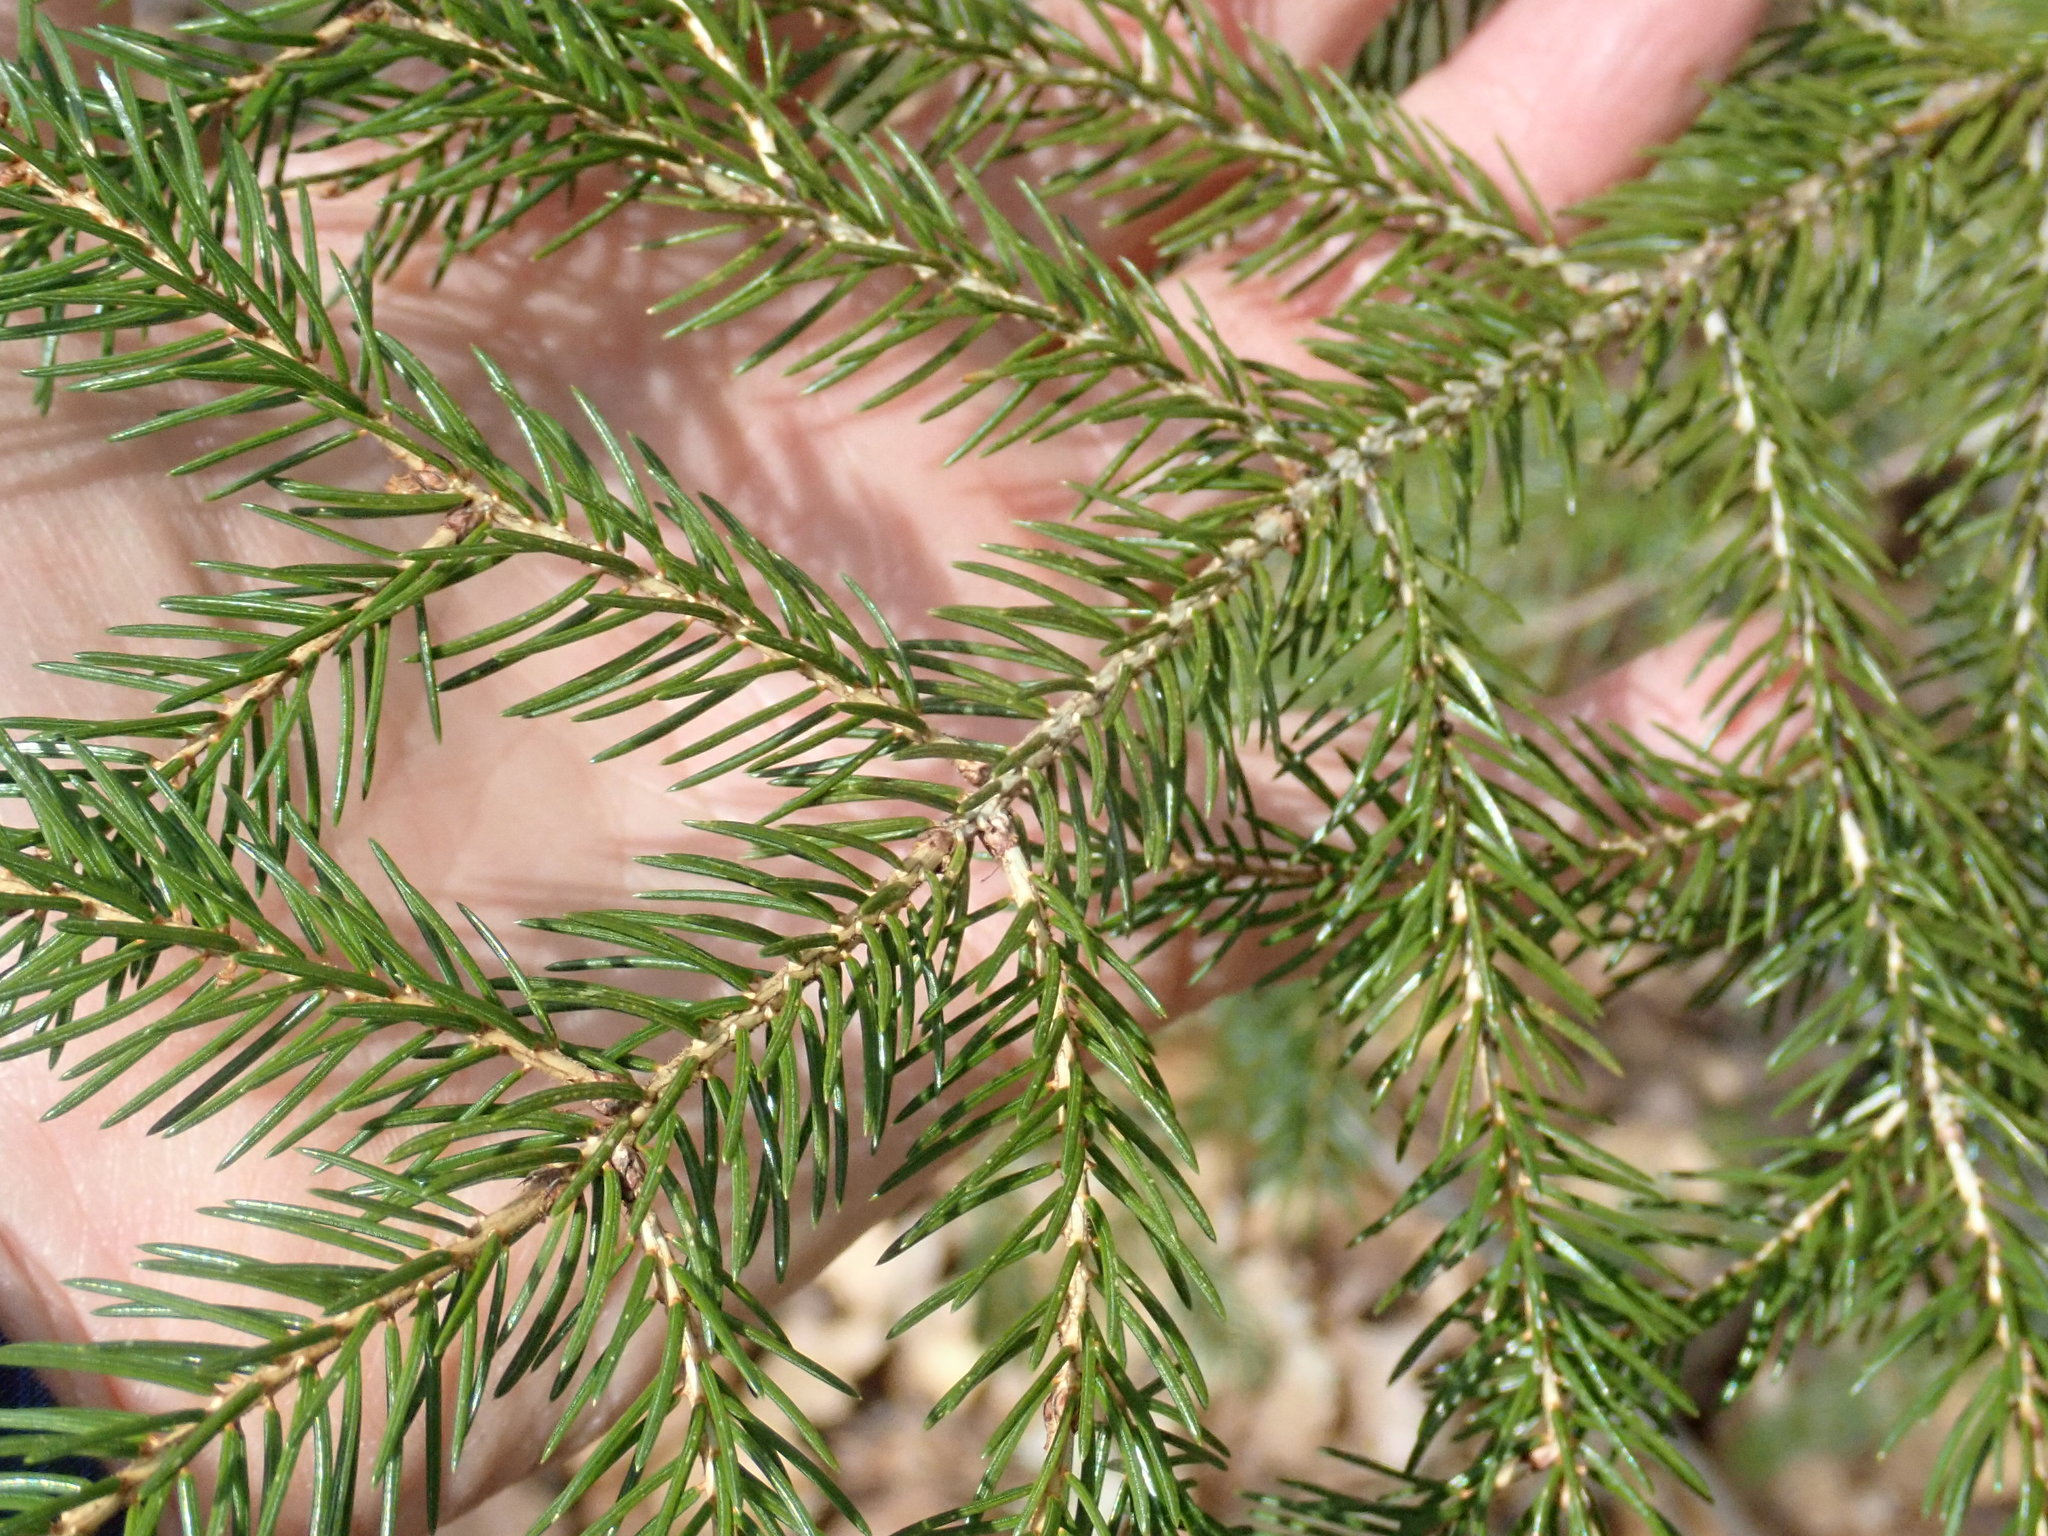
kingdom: Plantae
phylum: Tracheophyta
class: Pinopsida
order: Pinales
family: Pinaceae
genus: Picea
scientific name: Picea abies
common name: Norway spruce
